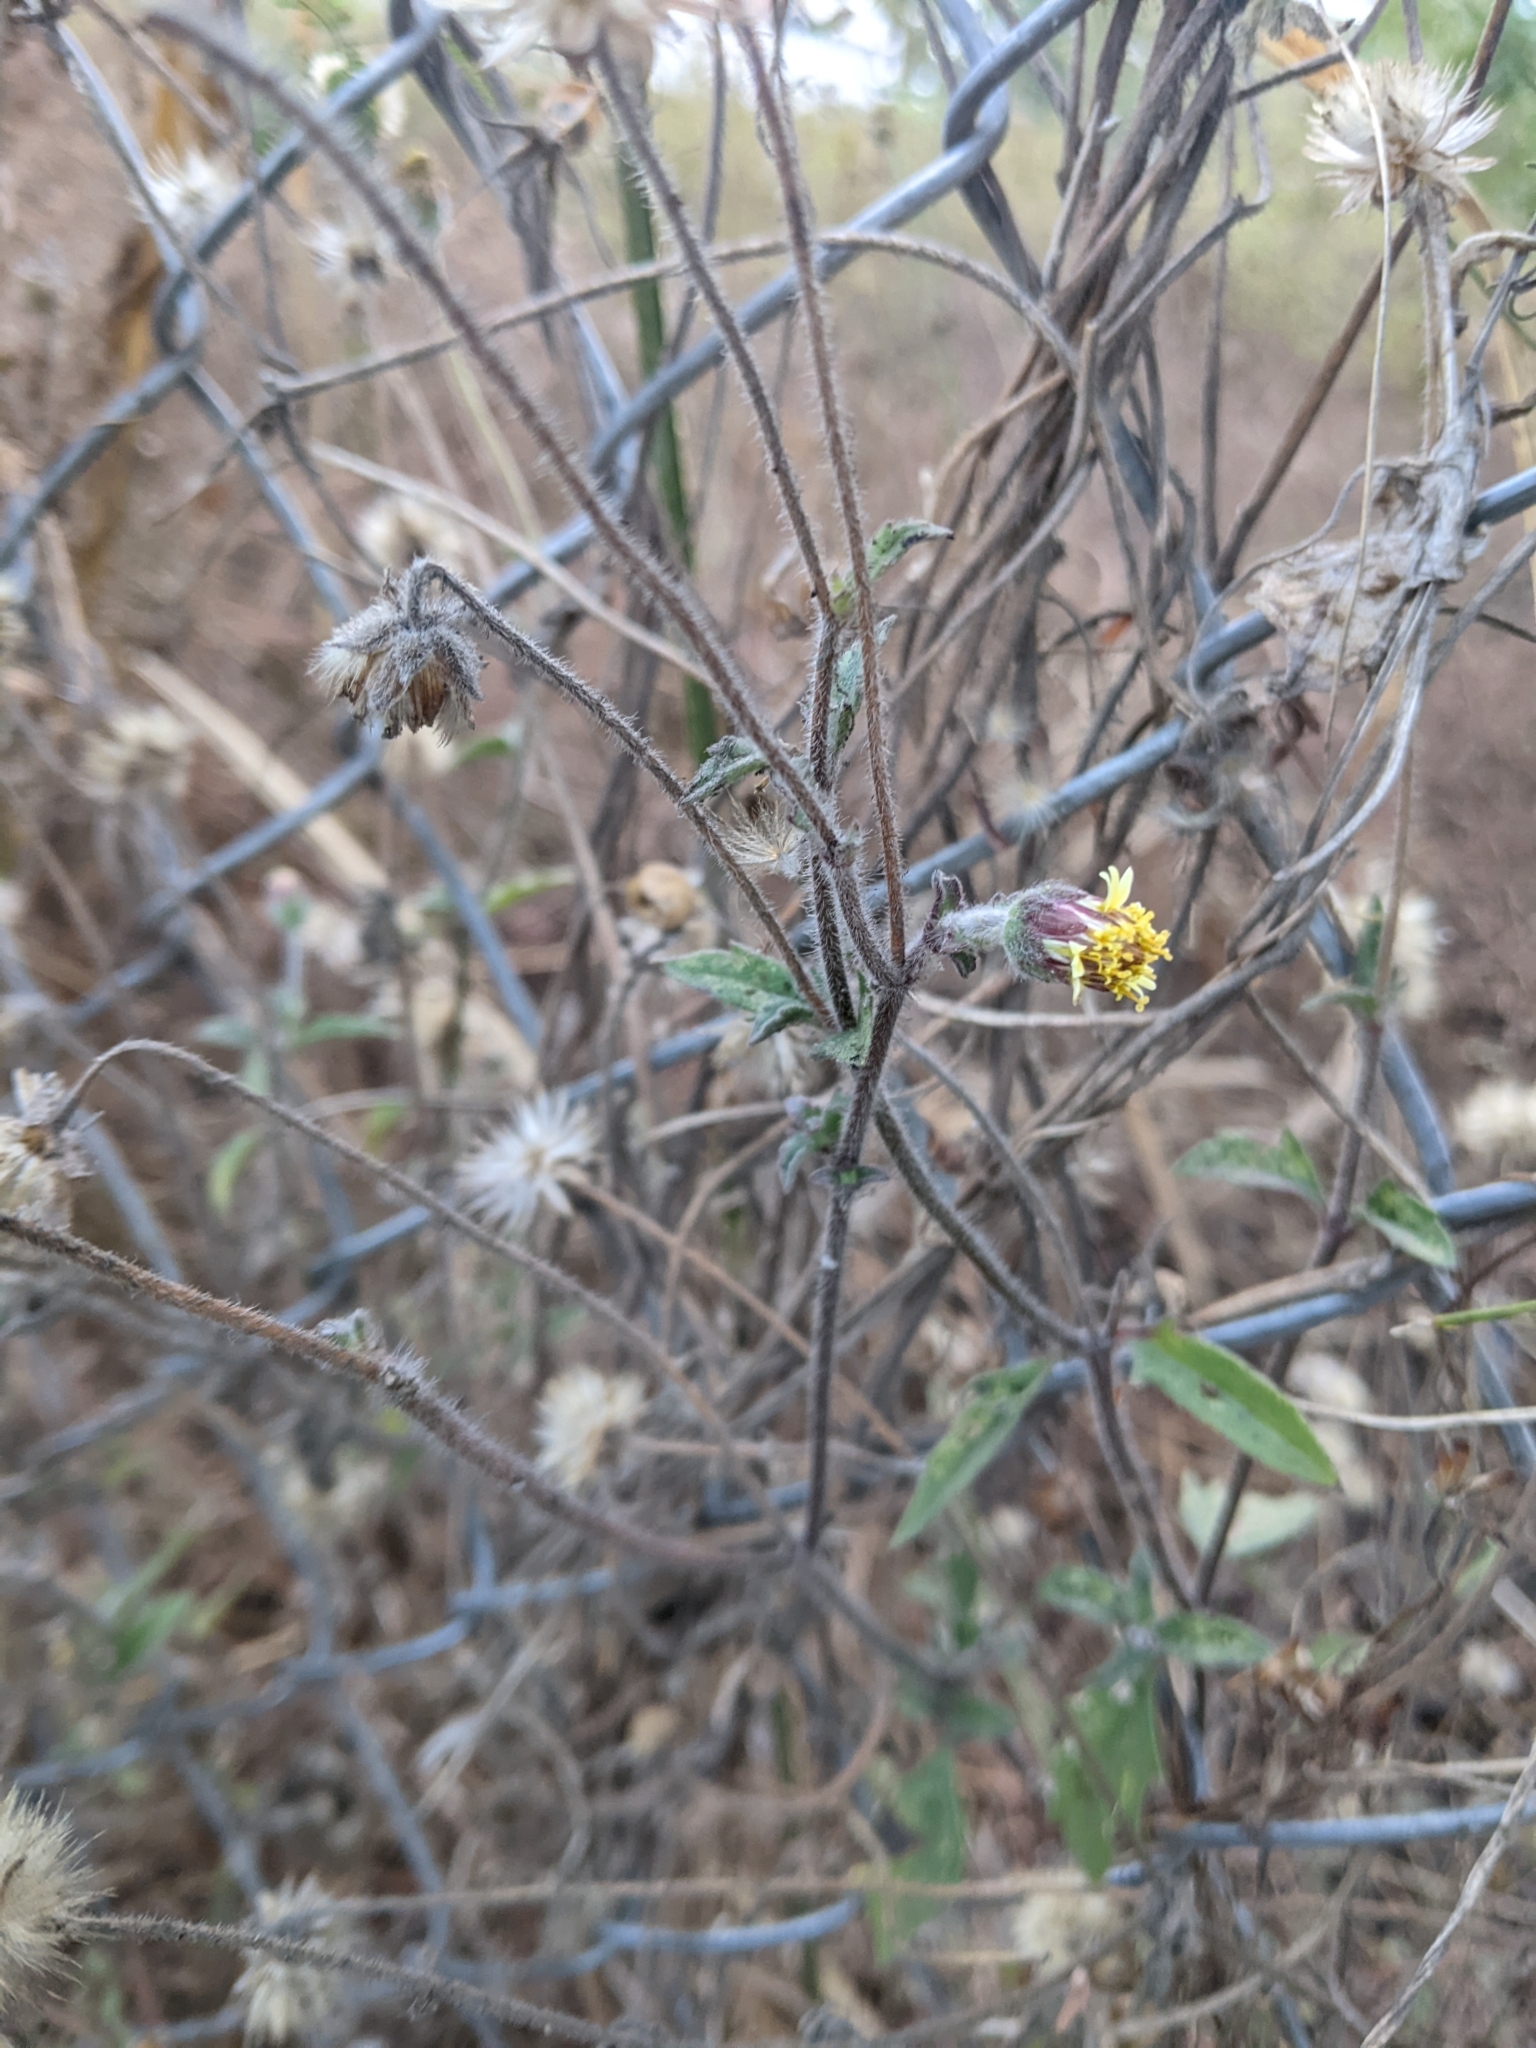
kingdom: Plantae
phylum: Tracheophyta
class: Magnoliopsida
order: Asterales
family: Asteraceae
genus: Tridax
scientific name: Tridax procumbens
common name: Coatbuttons
